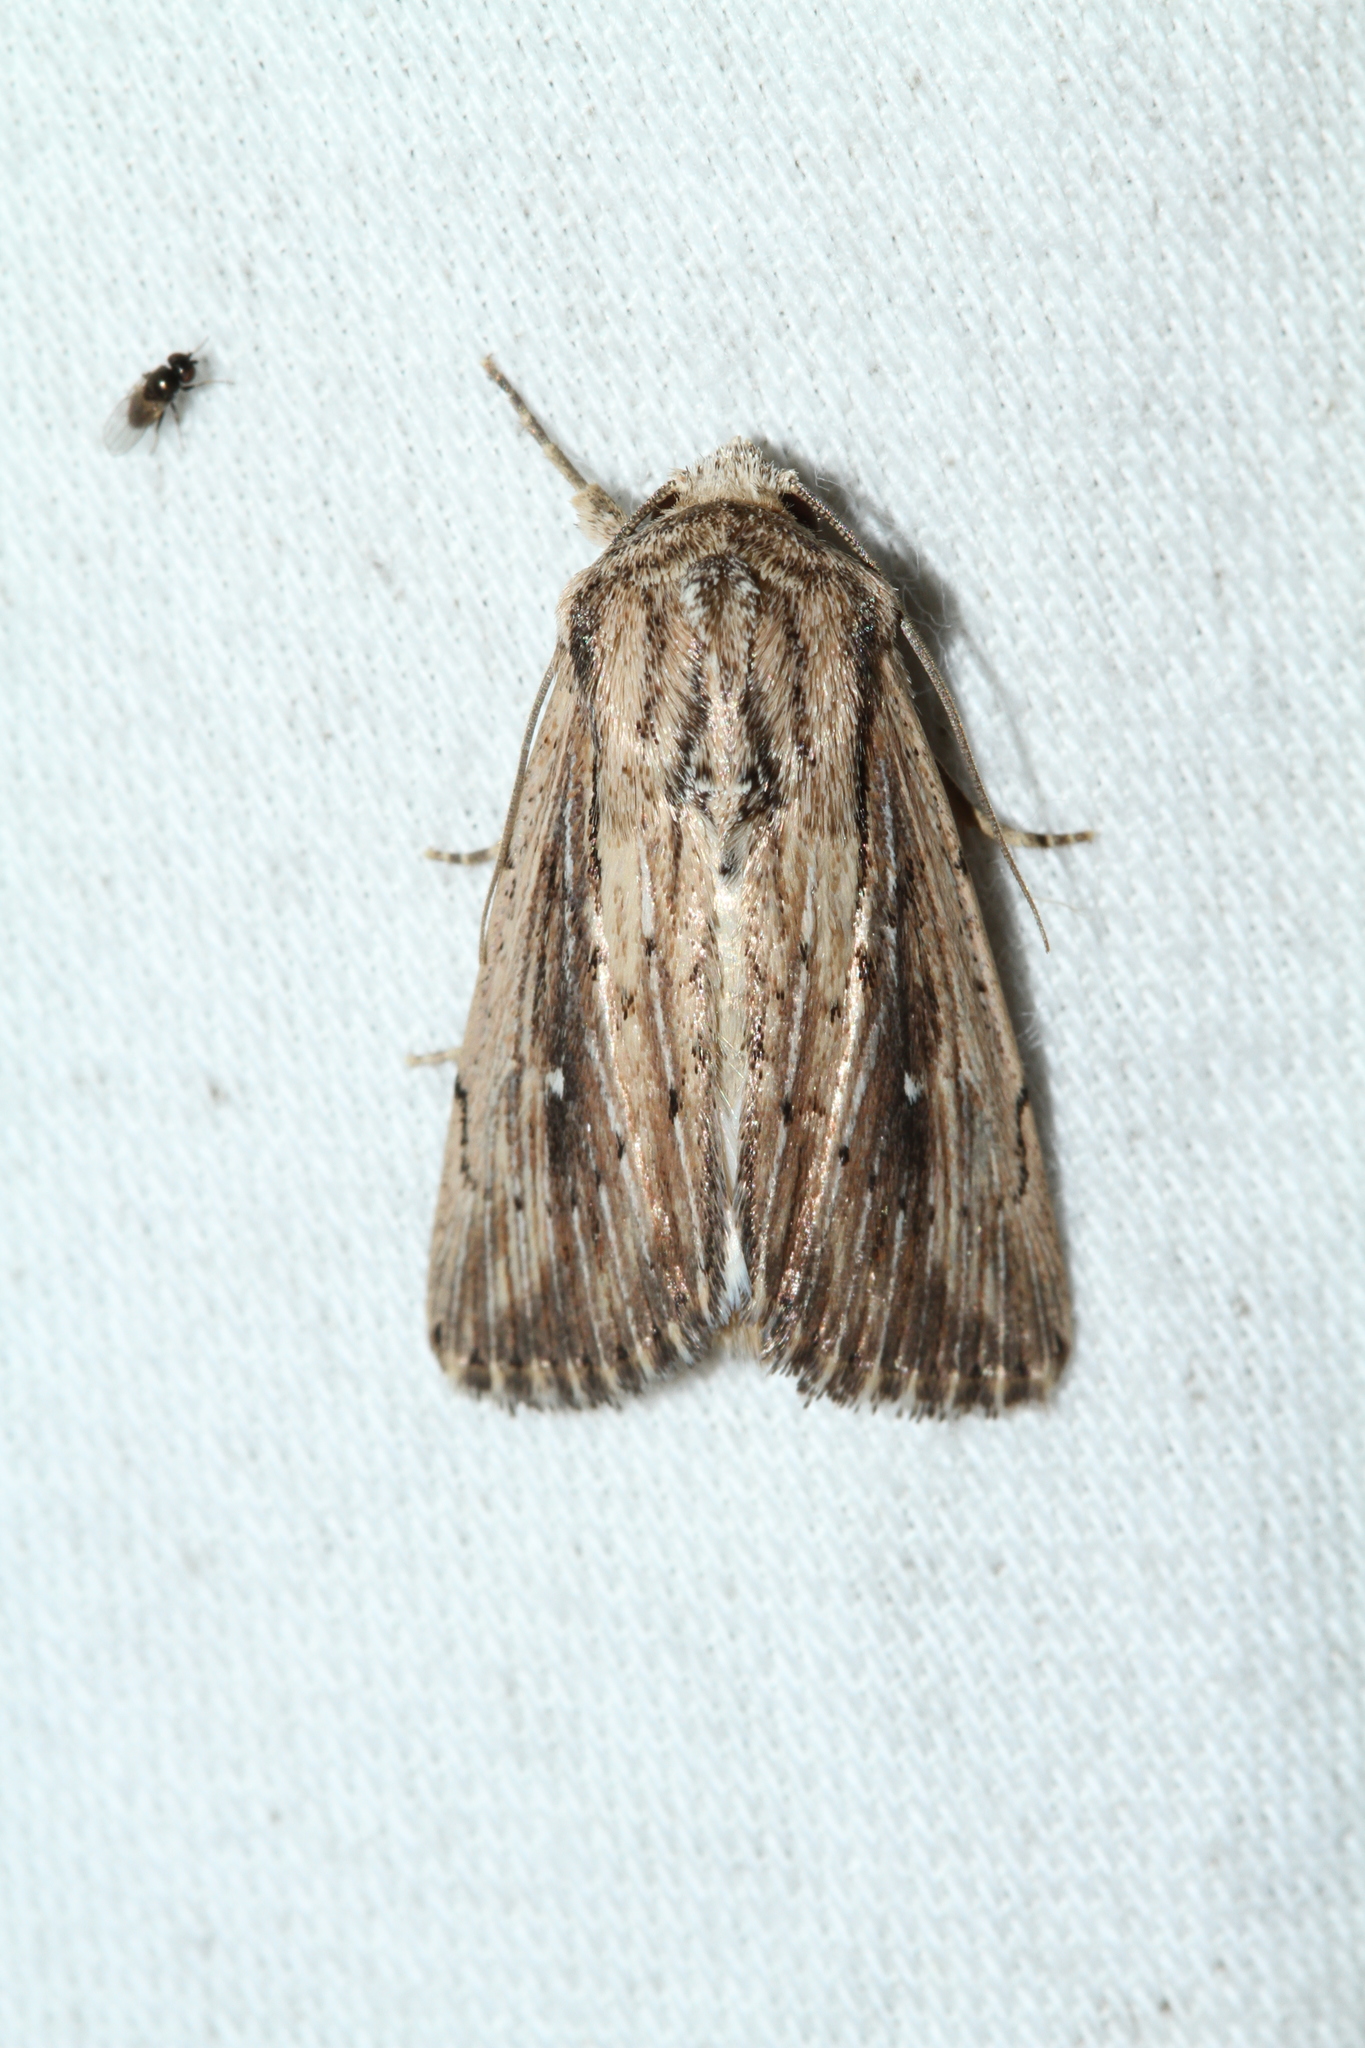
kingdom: Animalia
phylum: Arthropoda
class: Insecta
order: Lepidoptera
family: Noctuidae
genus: Leucania
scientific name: Leucania putrescens
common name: Devonshire wainscot
